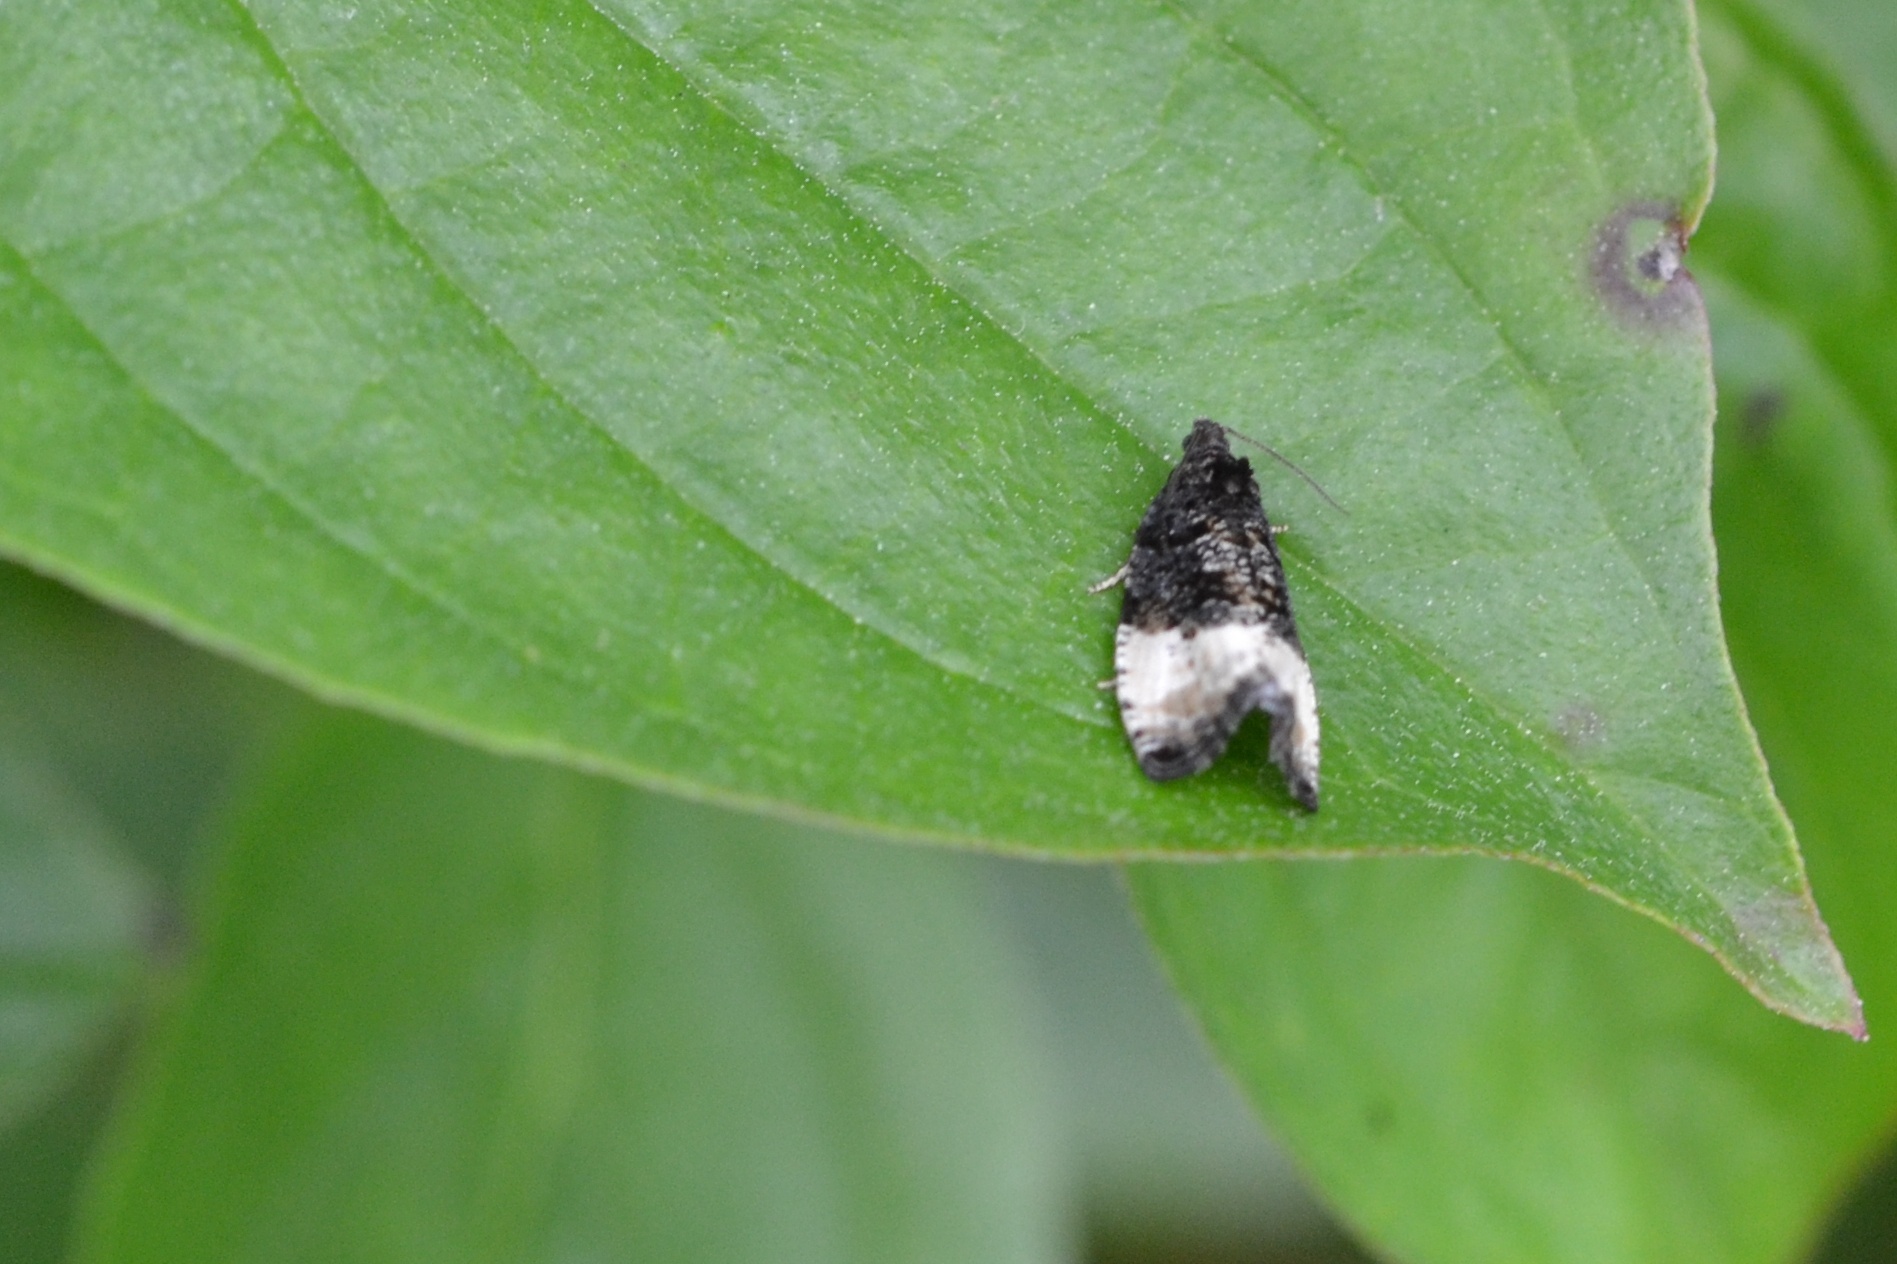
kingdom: Animalia
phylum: Arthropoda
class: Insecta
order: Lepidoptera
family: Tortricidae
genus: Hedya
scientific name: Hedya pruniana
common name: Plum tortrix
